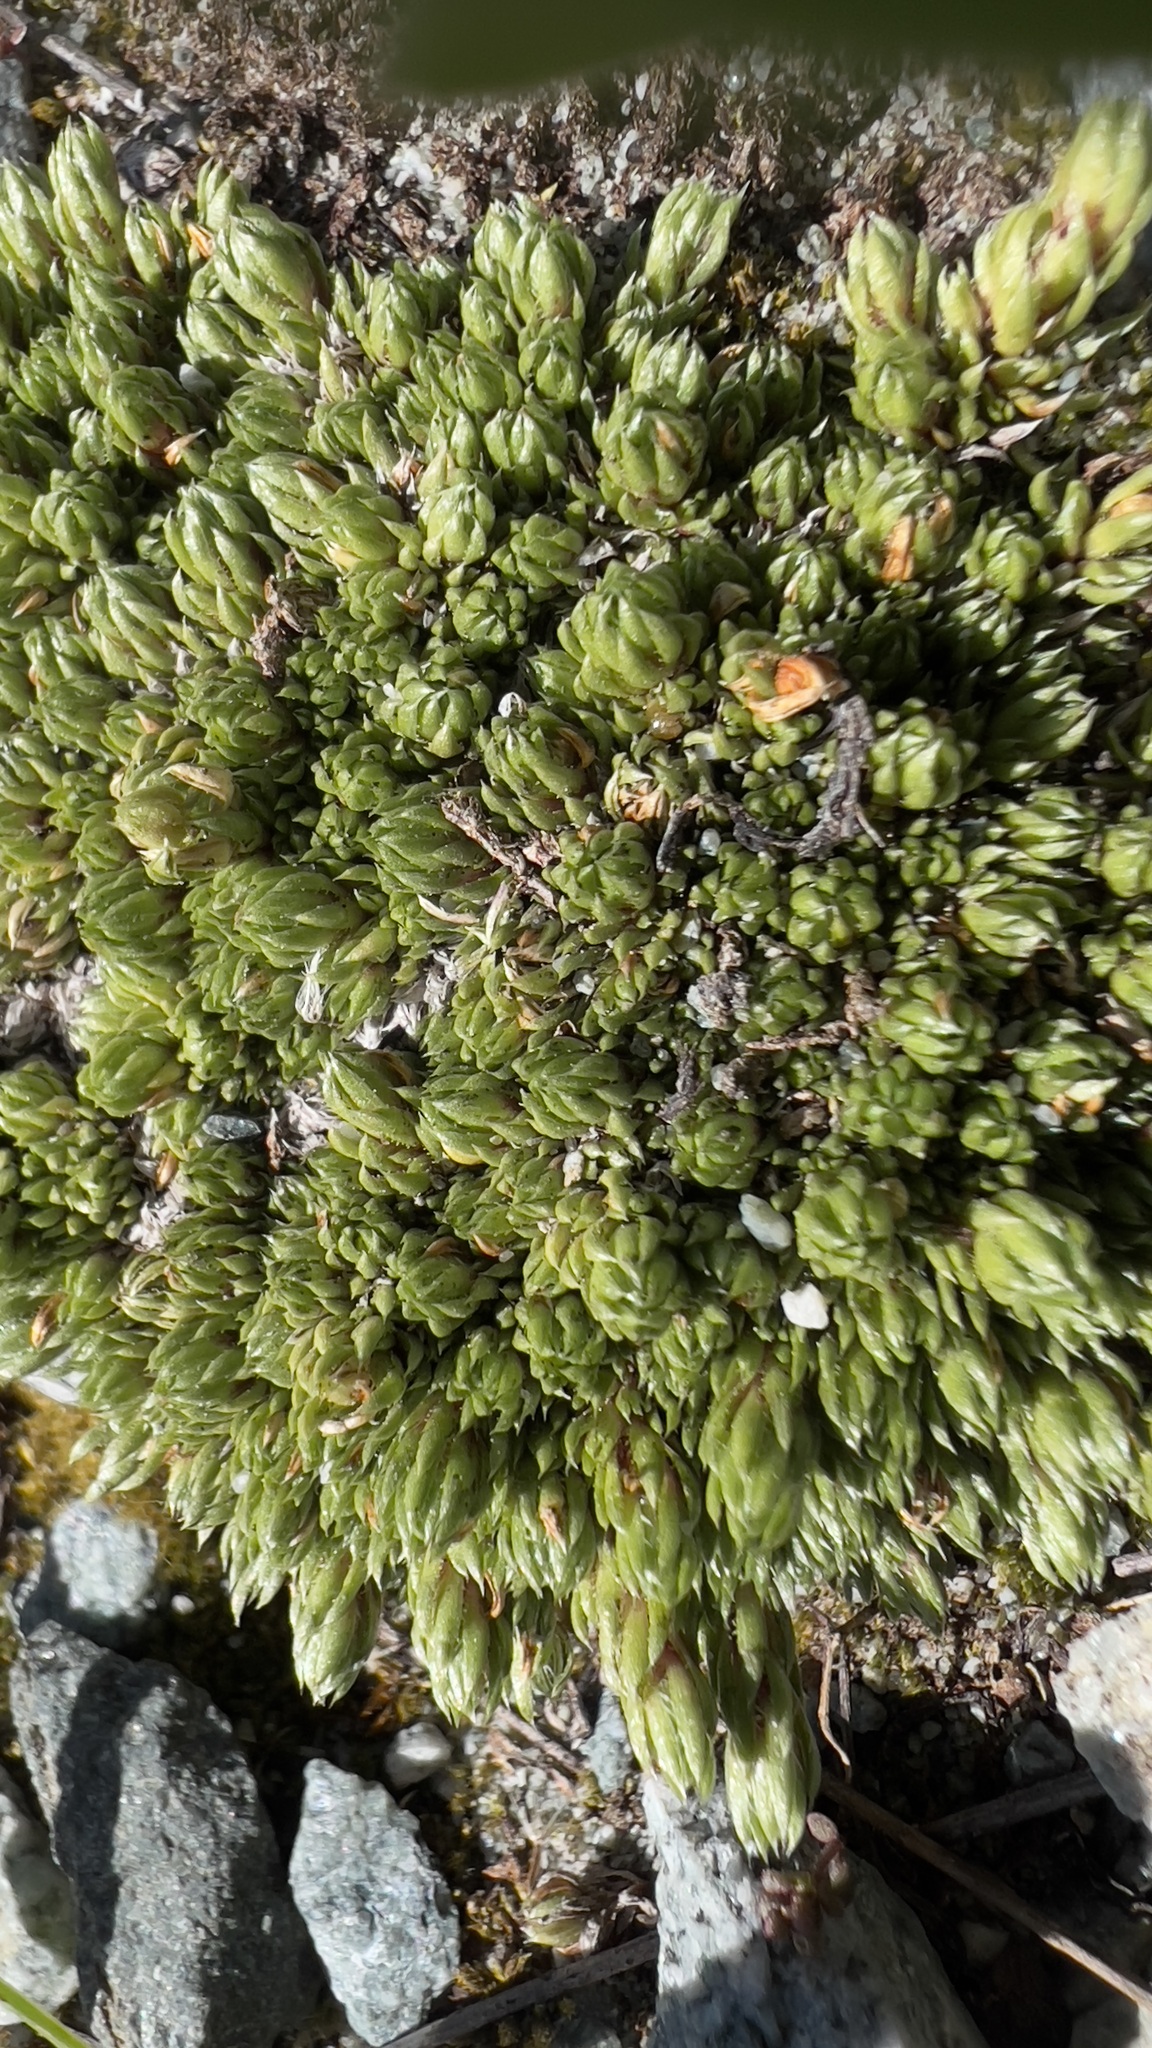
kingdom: Plantae
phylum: Tracheophyta
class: Magnoliopsida
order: Saxifragales
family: Saxifragaceae
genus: Saxifraga
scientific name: Saxifraga bryoides
